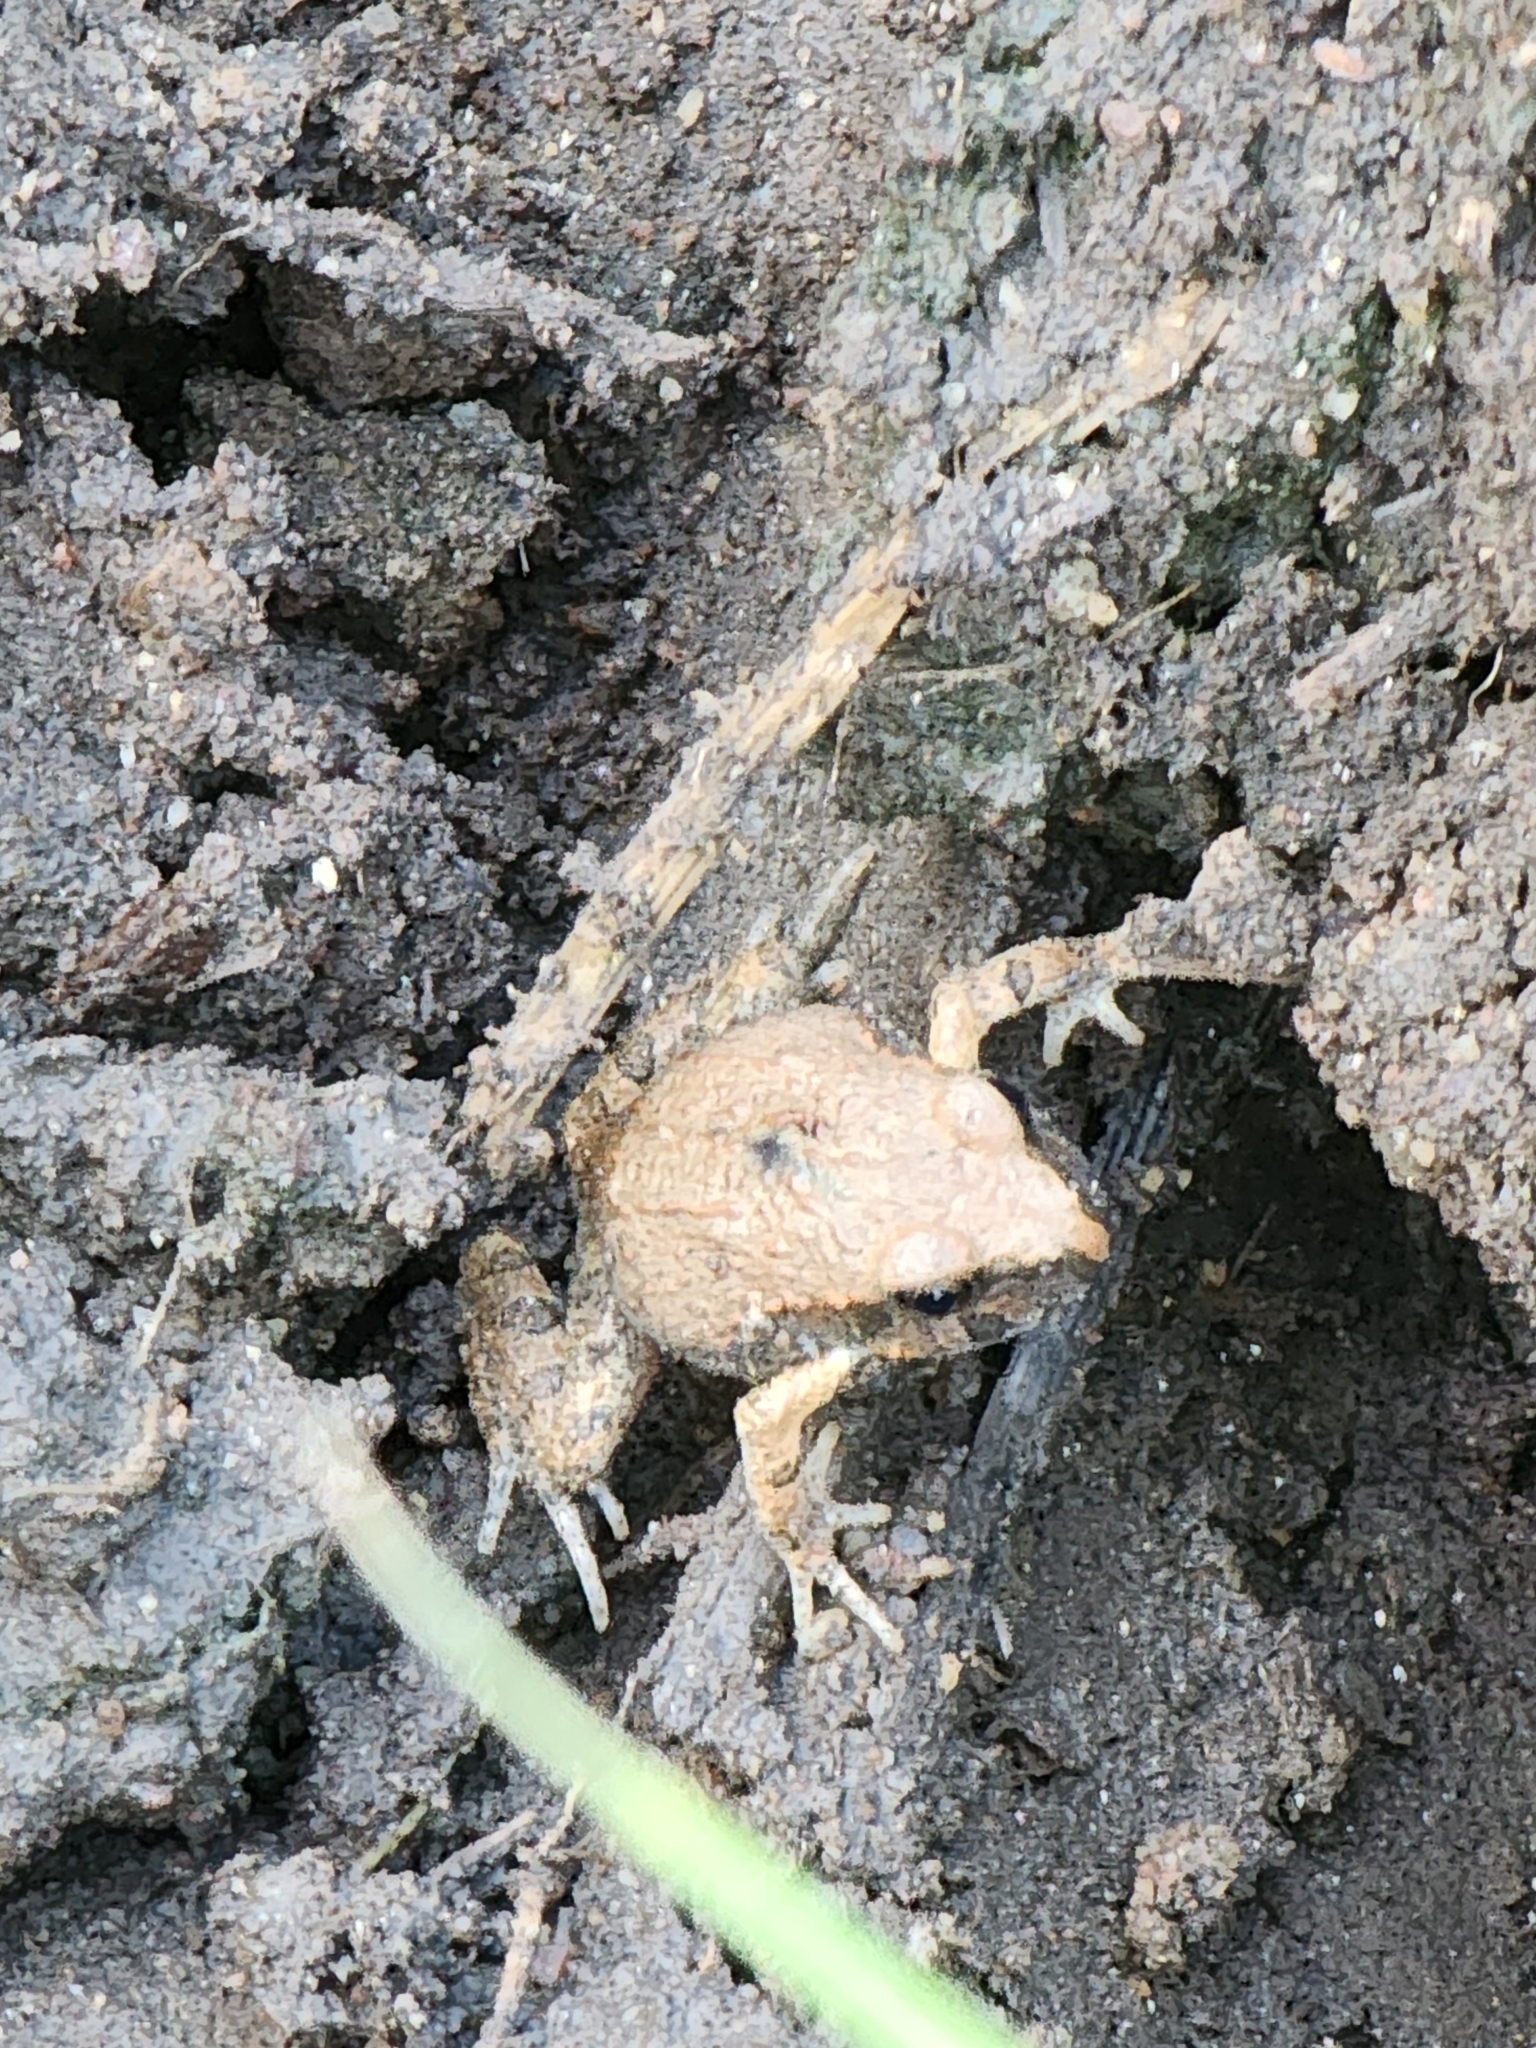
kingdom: Animalia
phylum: Chordata
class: Amphibia
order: Anura
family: Limnodynastidae
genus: Platyplectrum
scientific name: Platyplectrum ornatum
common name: Ornate burrowing frog
